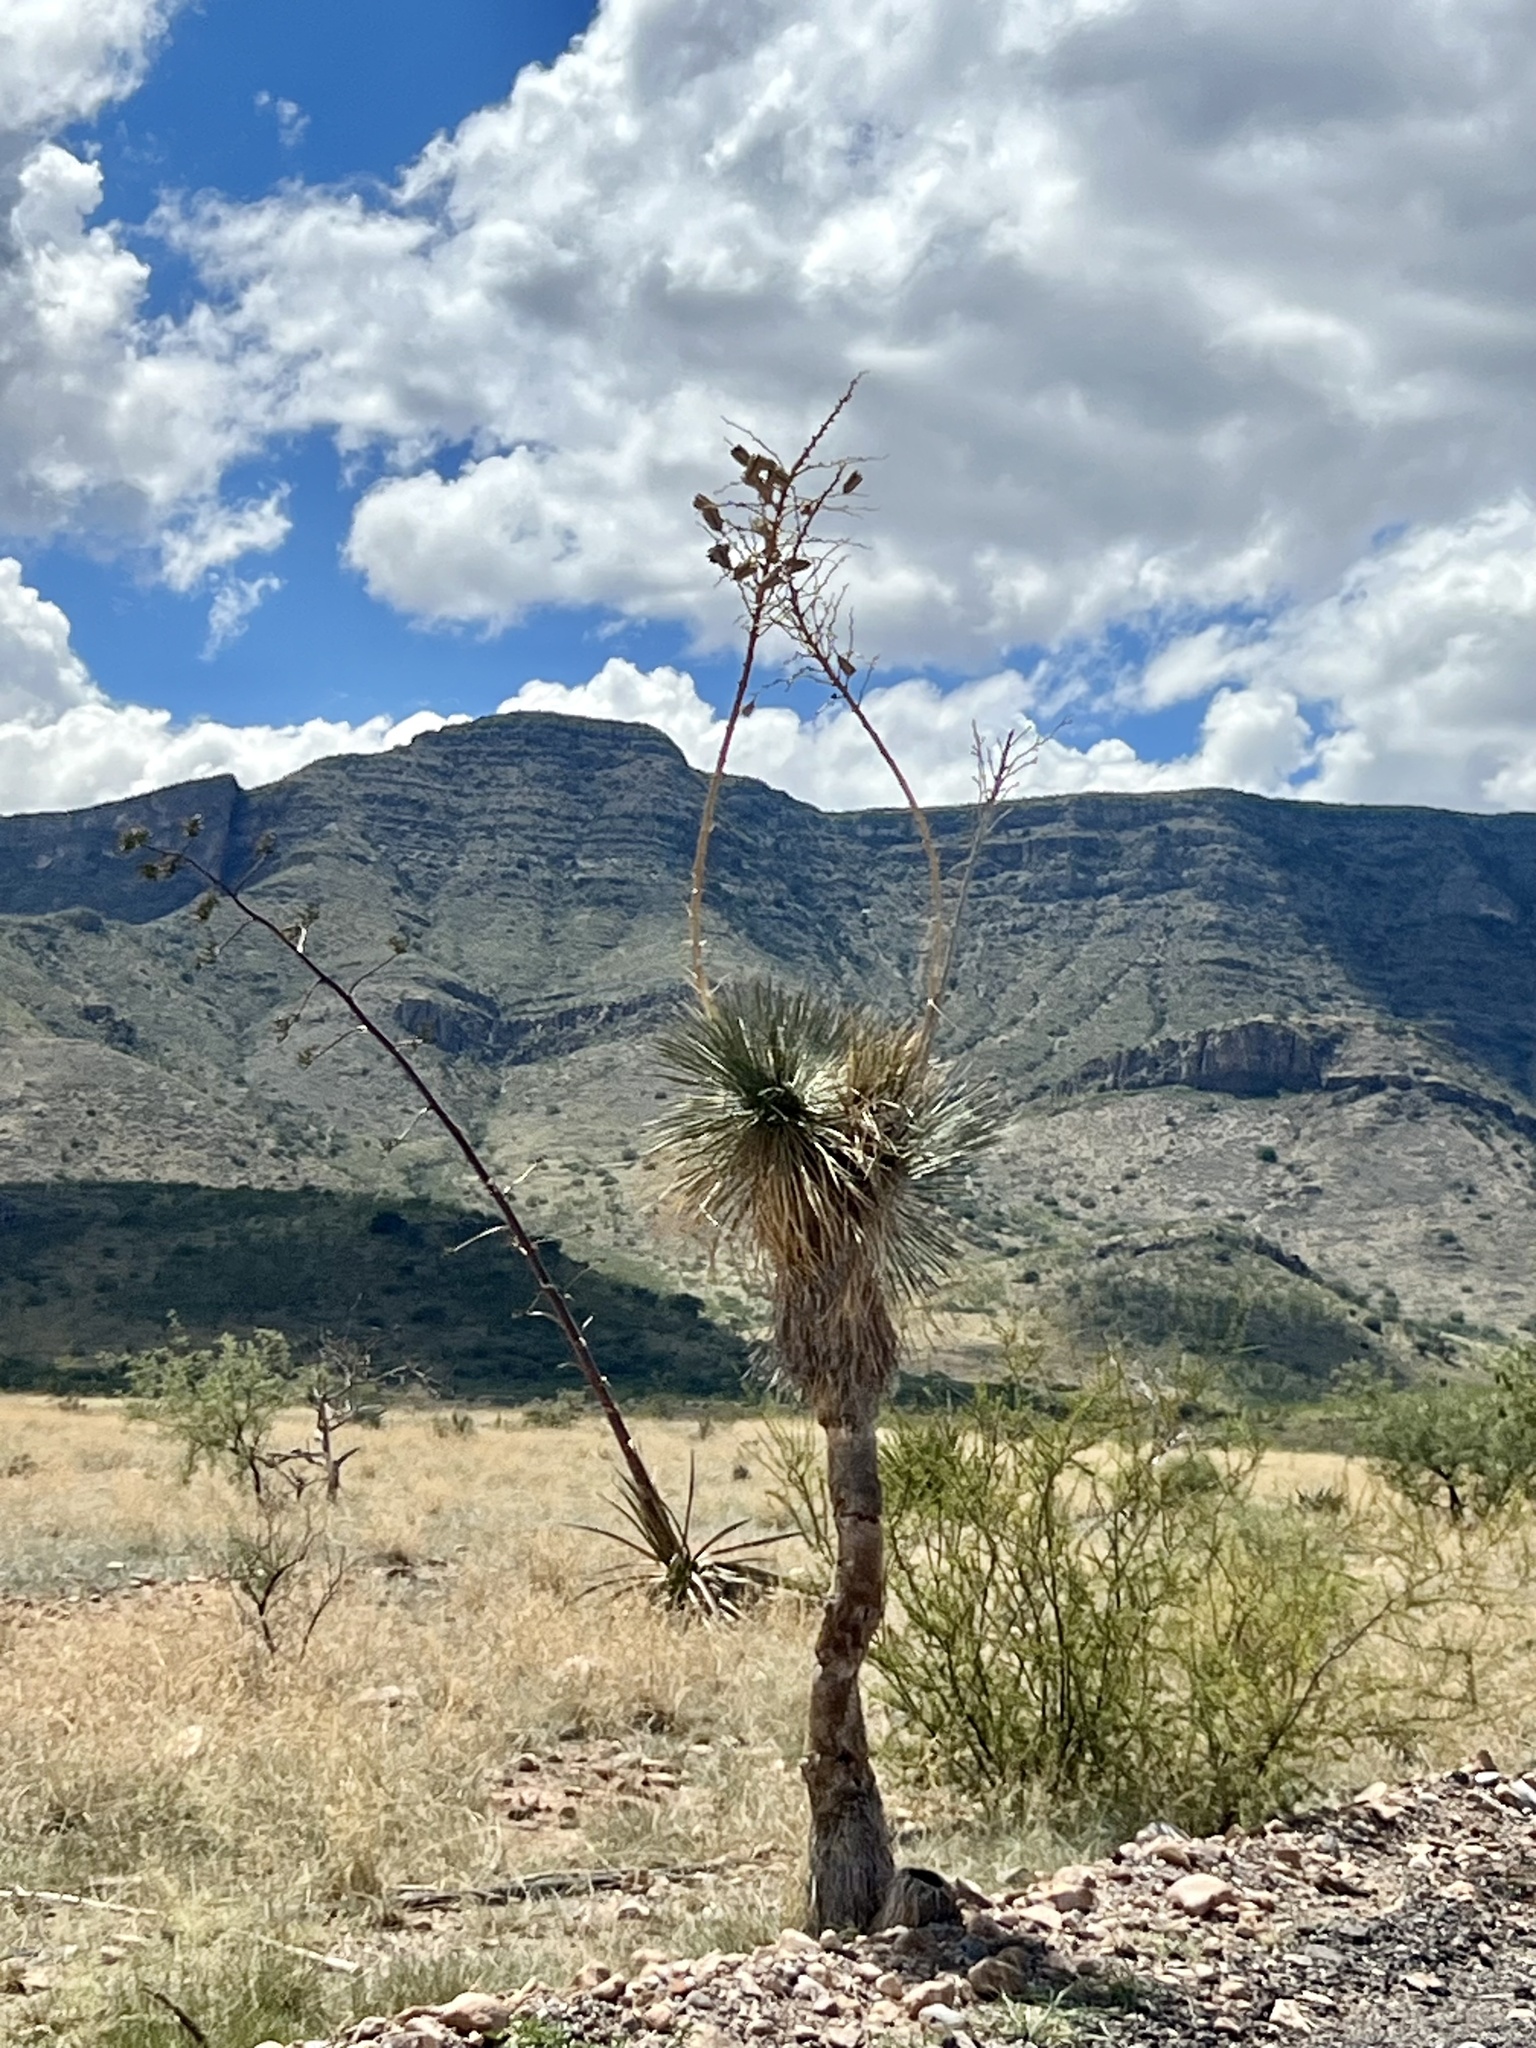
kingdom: Plantae
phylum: Tracheophyta
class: Liliopsida
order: Asparagales
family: Asparagaceae
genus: Yucca
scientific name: Yucca elata
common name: Palmella
